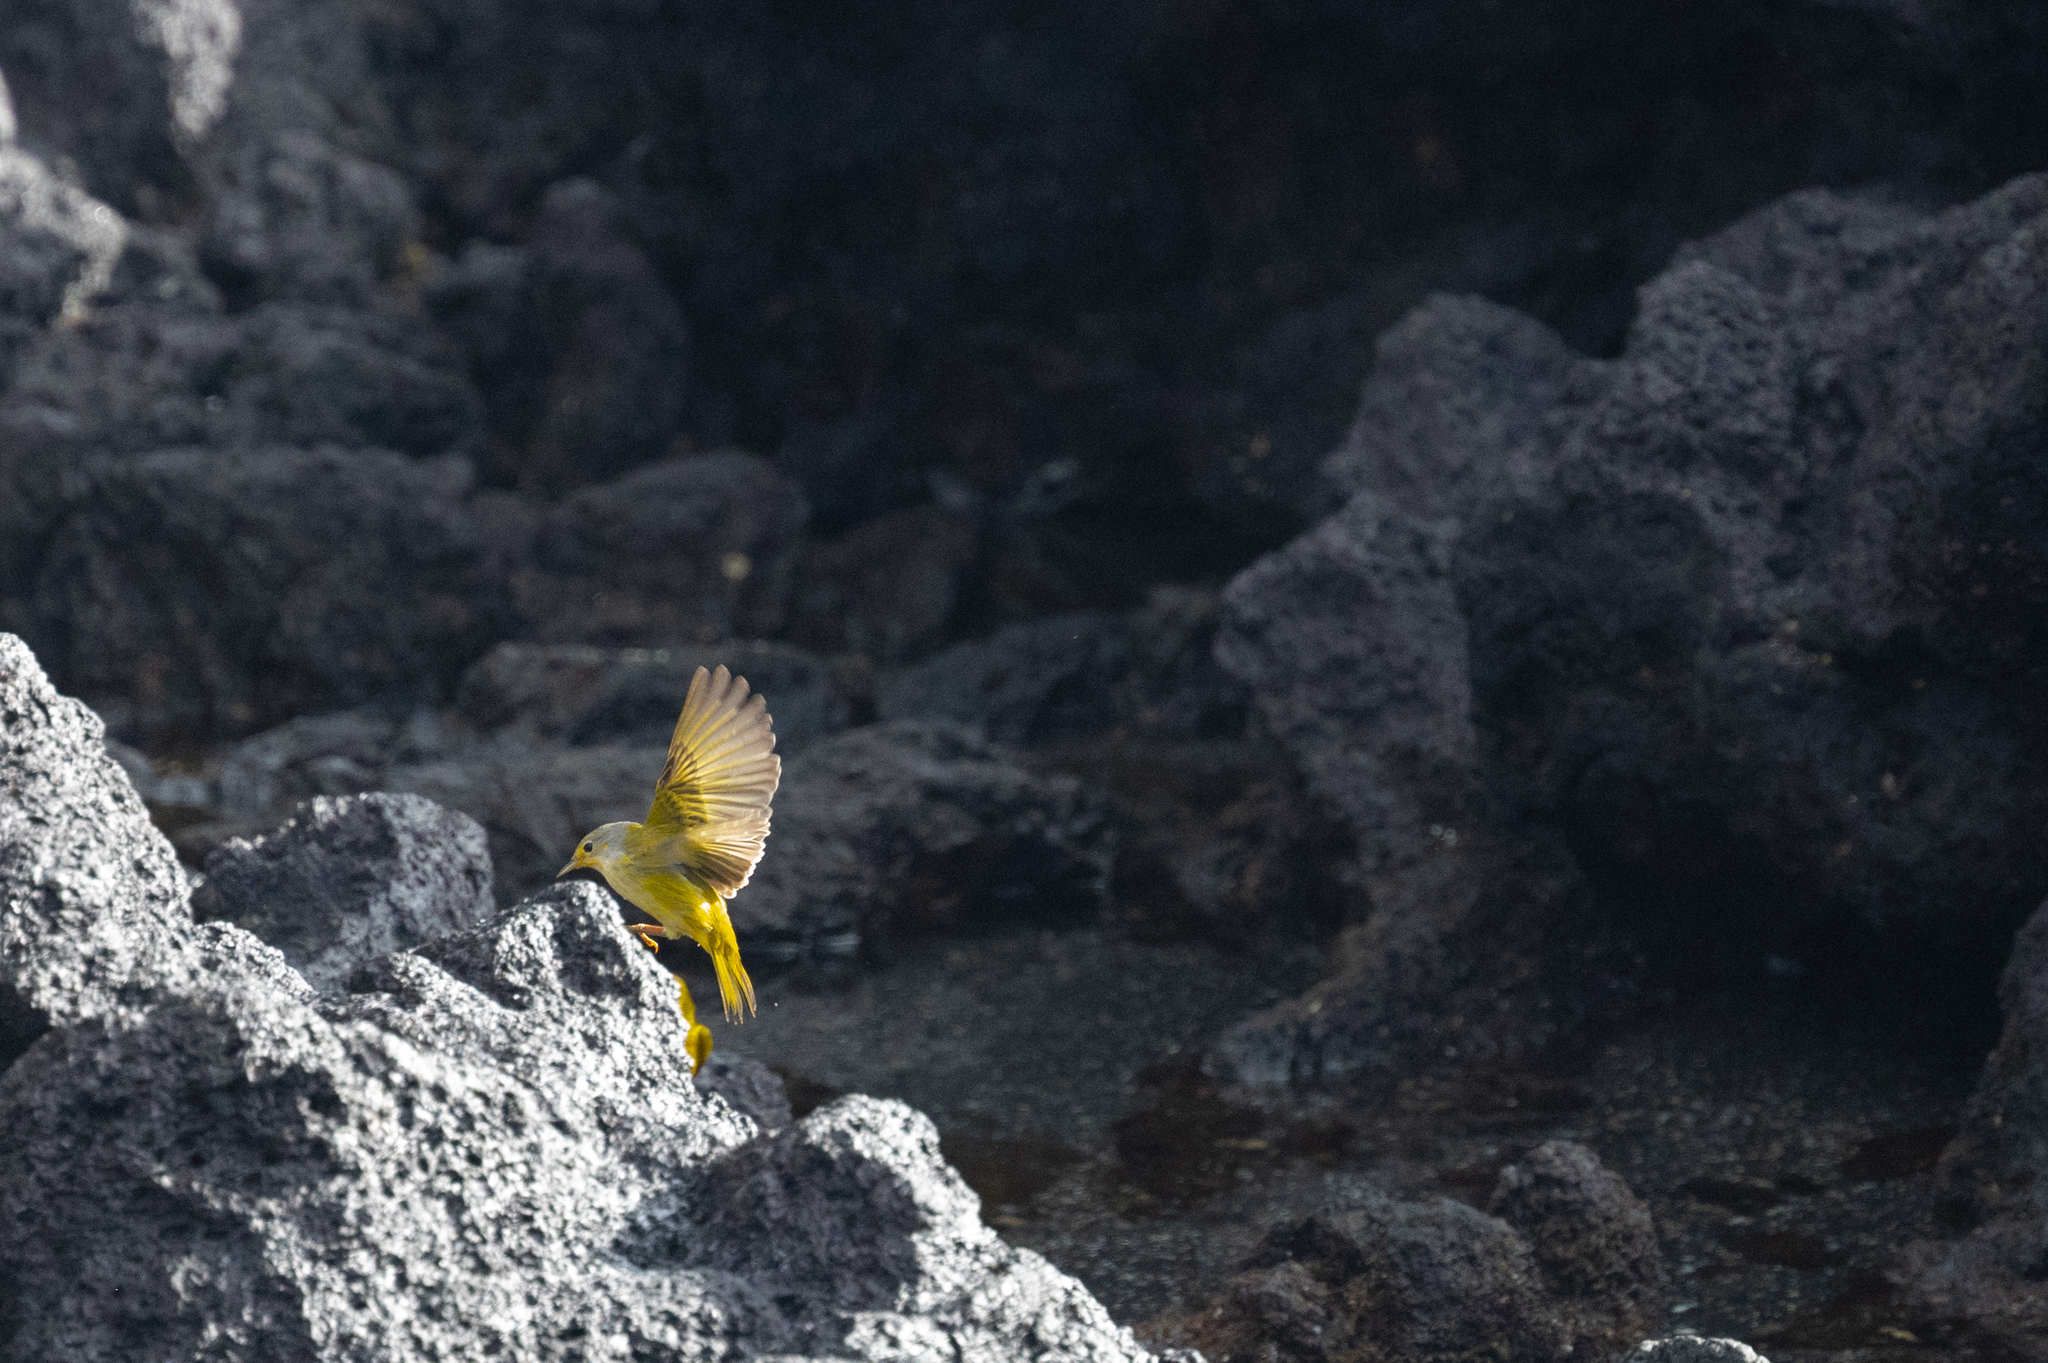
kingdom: Animalia
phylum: Chordata
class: Aves
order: Passeriformes
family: Parulidae
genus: Setophaga
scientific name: Setophaga petechia
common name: Yellow warbler
